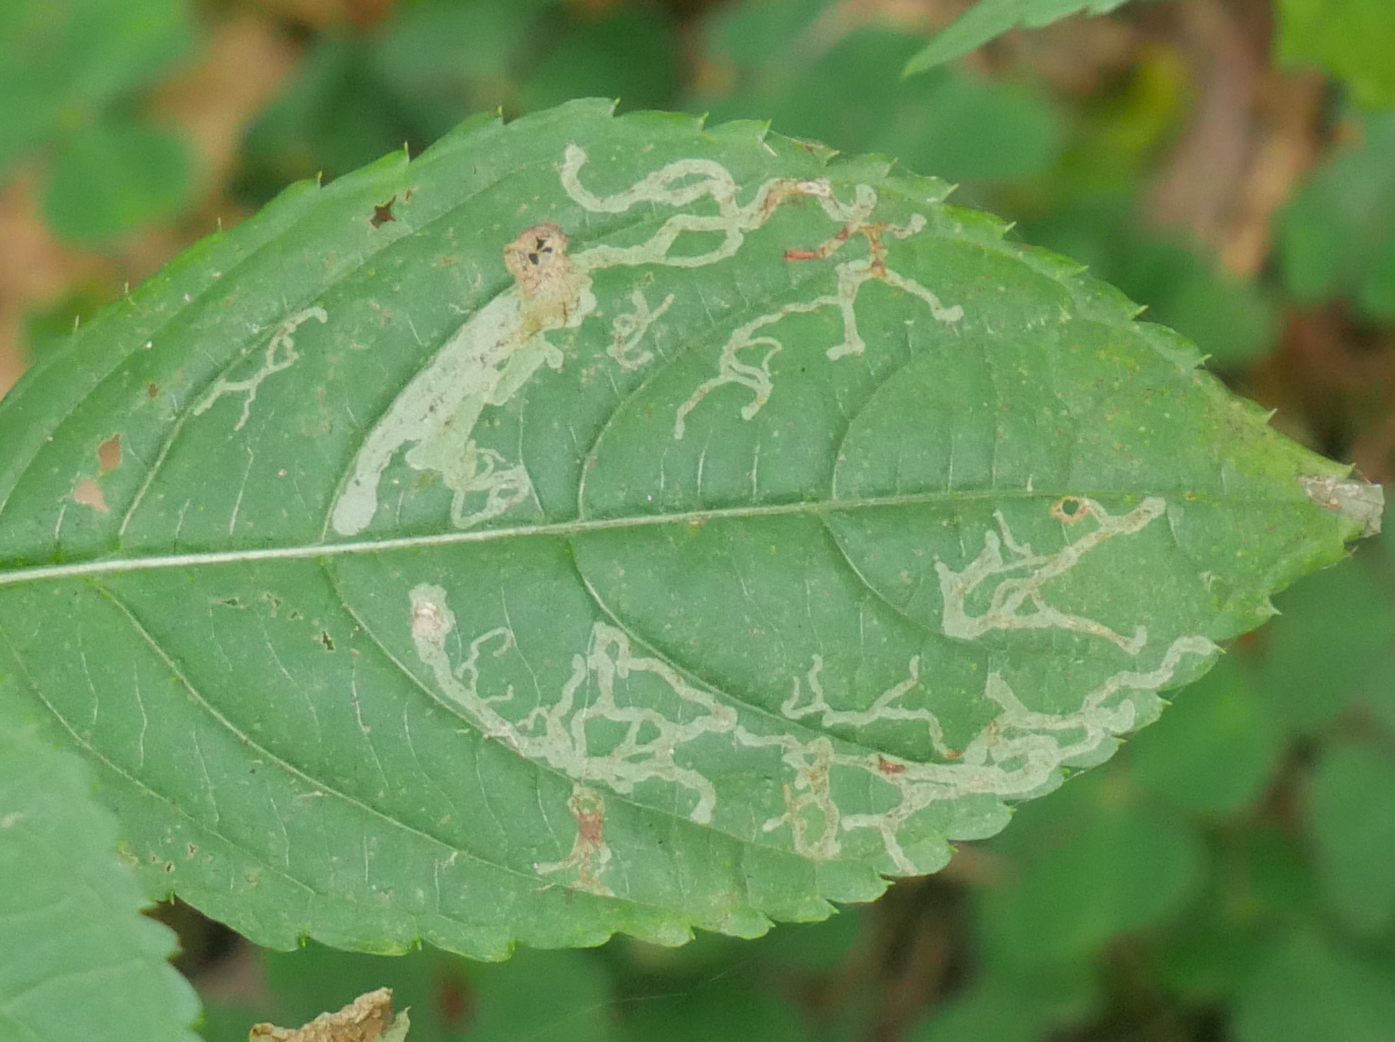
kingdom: Animalia
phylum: Arthropoda
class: Insecta
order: Diptera
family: Agromyzidae
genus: Phytoliriomyza
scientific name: Phytoliriomyza melampyga
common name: Jewelweed leaf-miner fly
